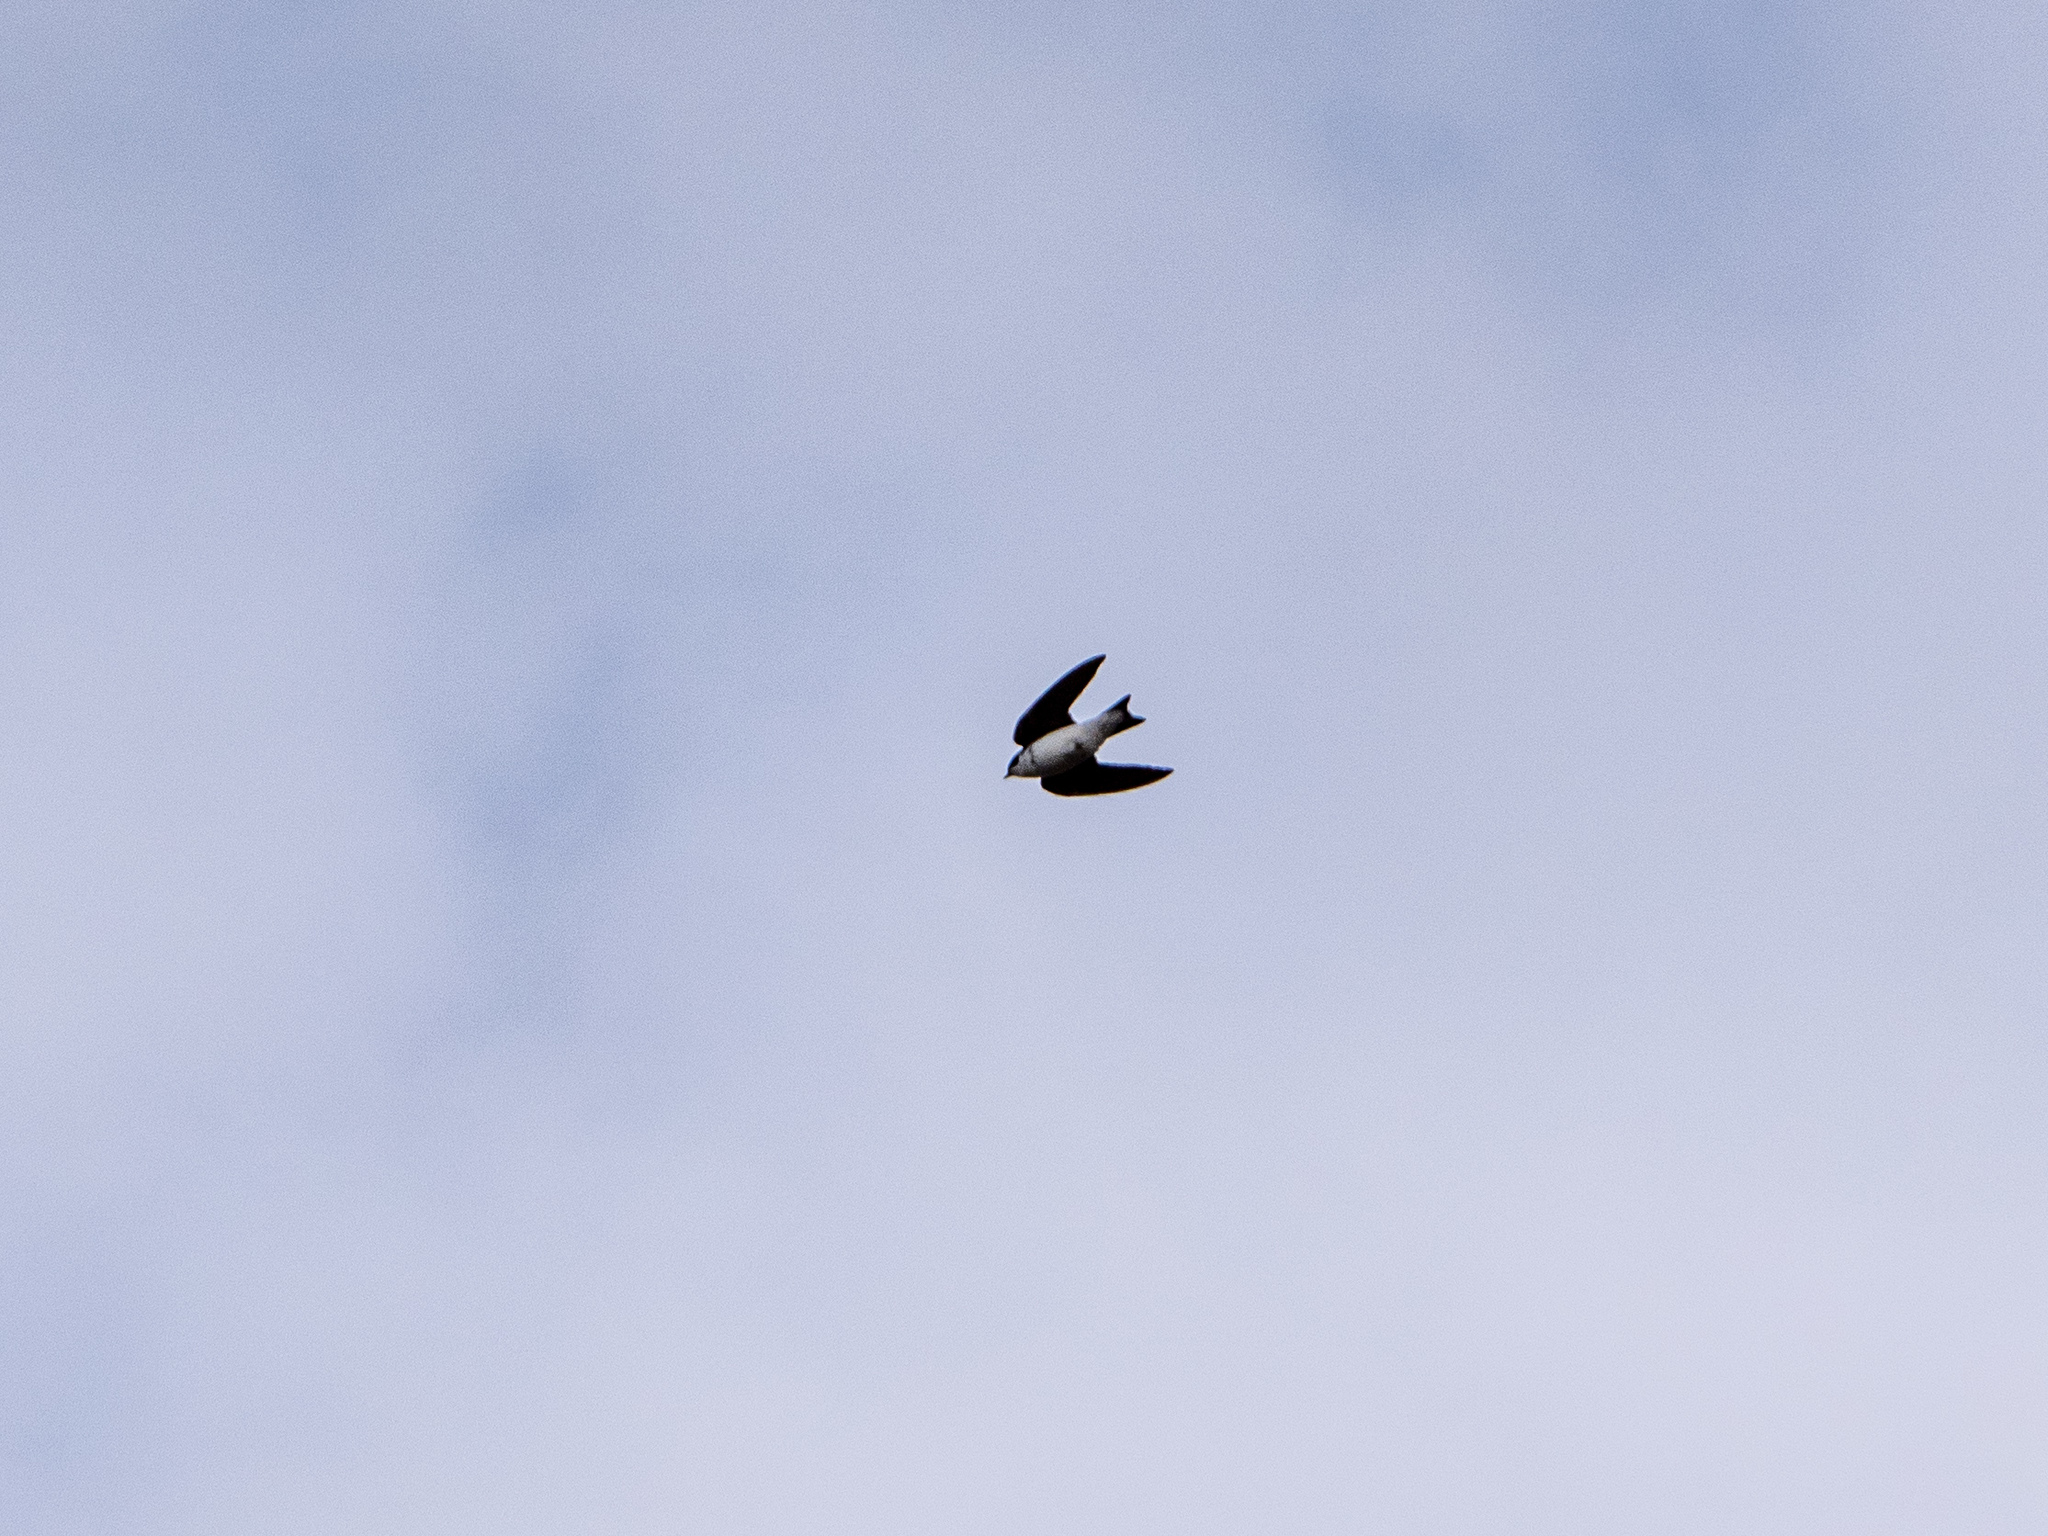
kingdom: Animalia
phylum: Chordata
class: Aves
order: Passeriformes
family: Hirundinidae
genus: Tachycineta
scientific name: Tachycineta bicolor
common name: Tree swallow
